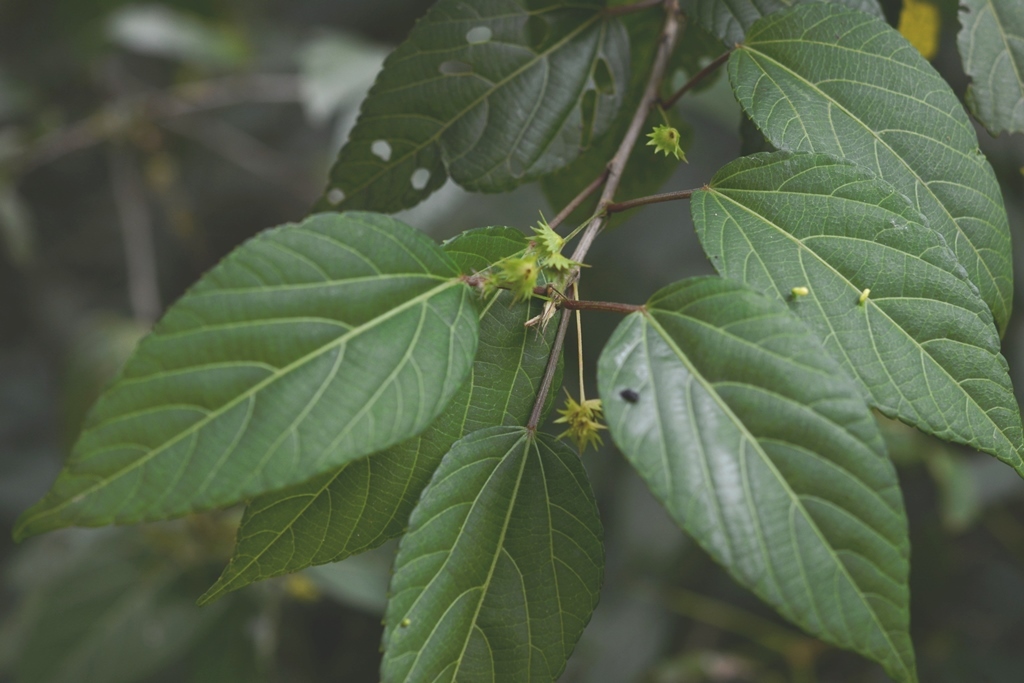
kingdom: Plantae
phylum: Tracheophyta
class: Magnoliopsida
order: Malpighiales
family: Euphorbiaceae
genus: Acalypha
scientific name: Acalypha leptopoda
